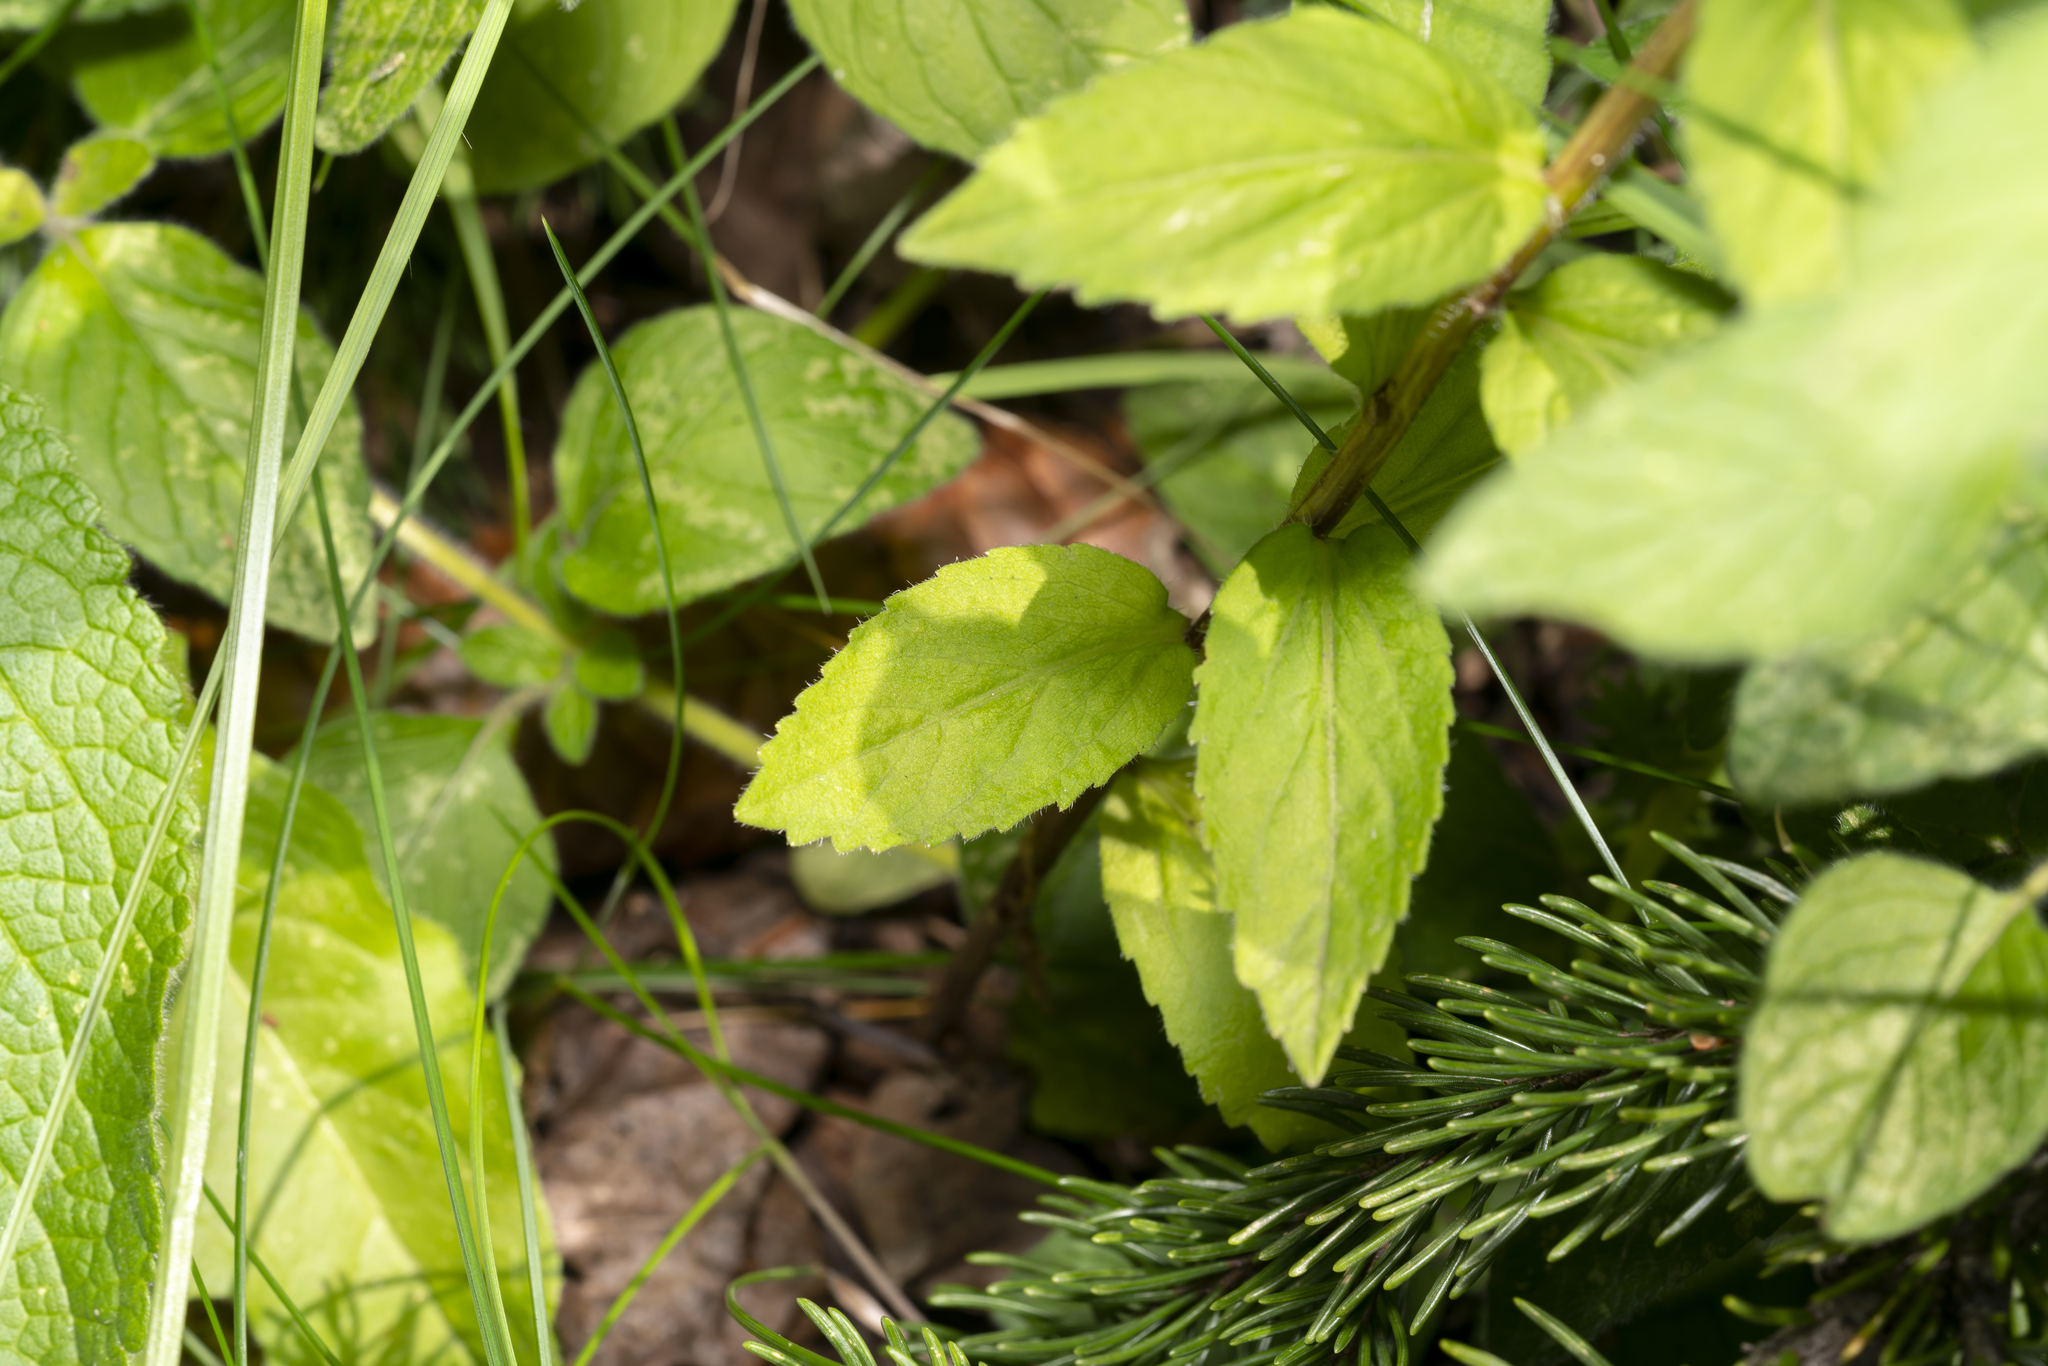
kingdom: Plantae
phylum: Tracheophyta
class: Magnoliopsida
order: Asterales
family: Campanulaceae
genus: Campanula
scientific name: Campanula rhomboidalis
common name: Broad-leaved harebell
